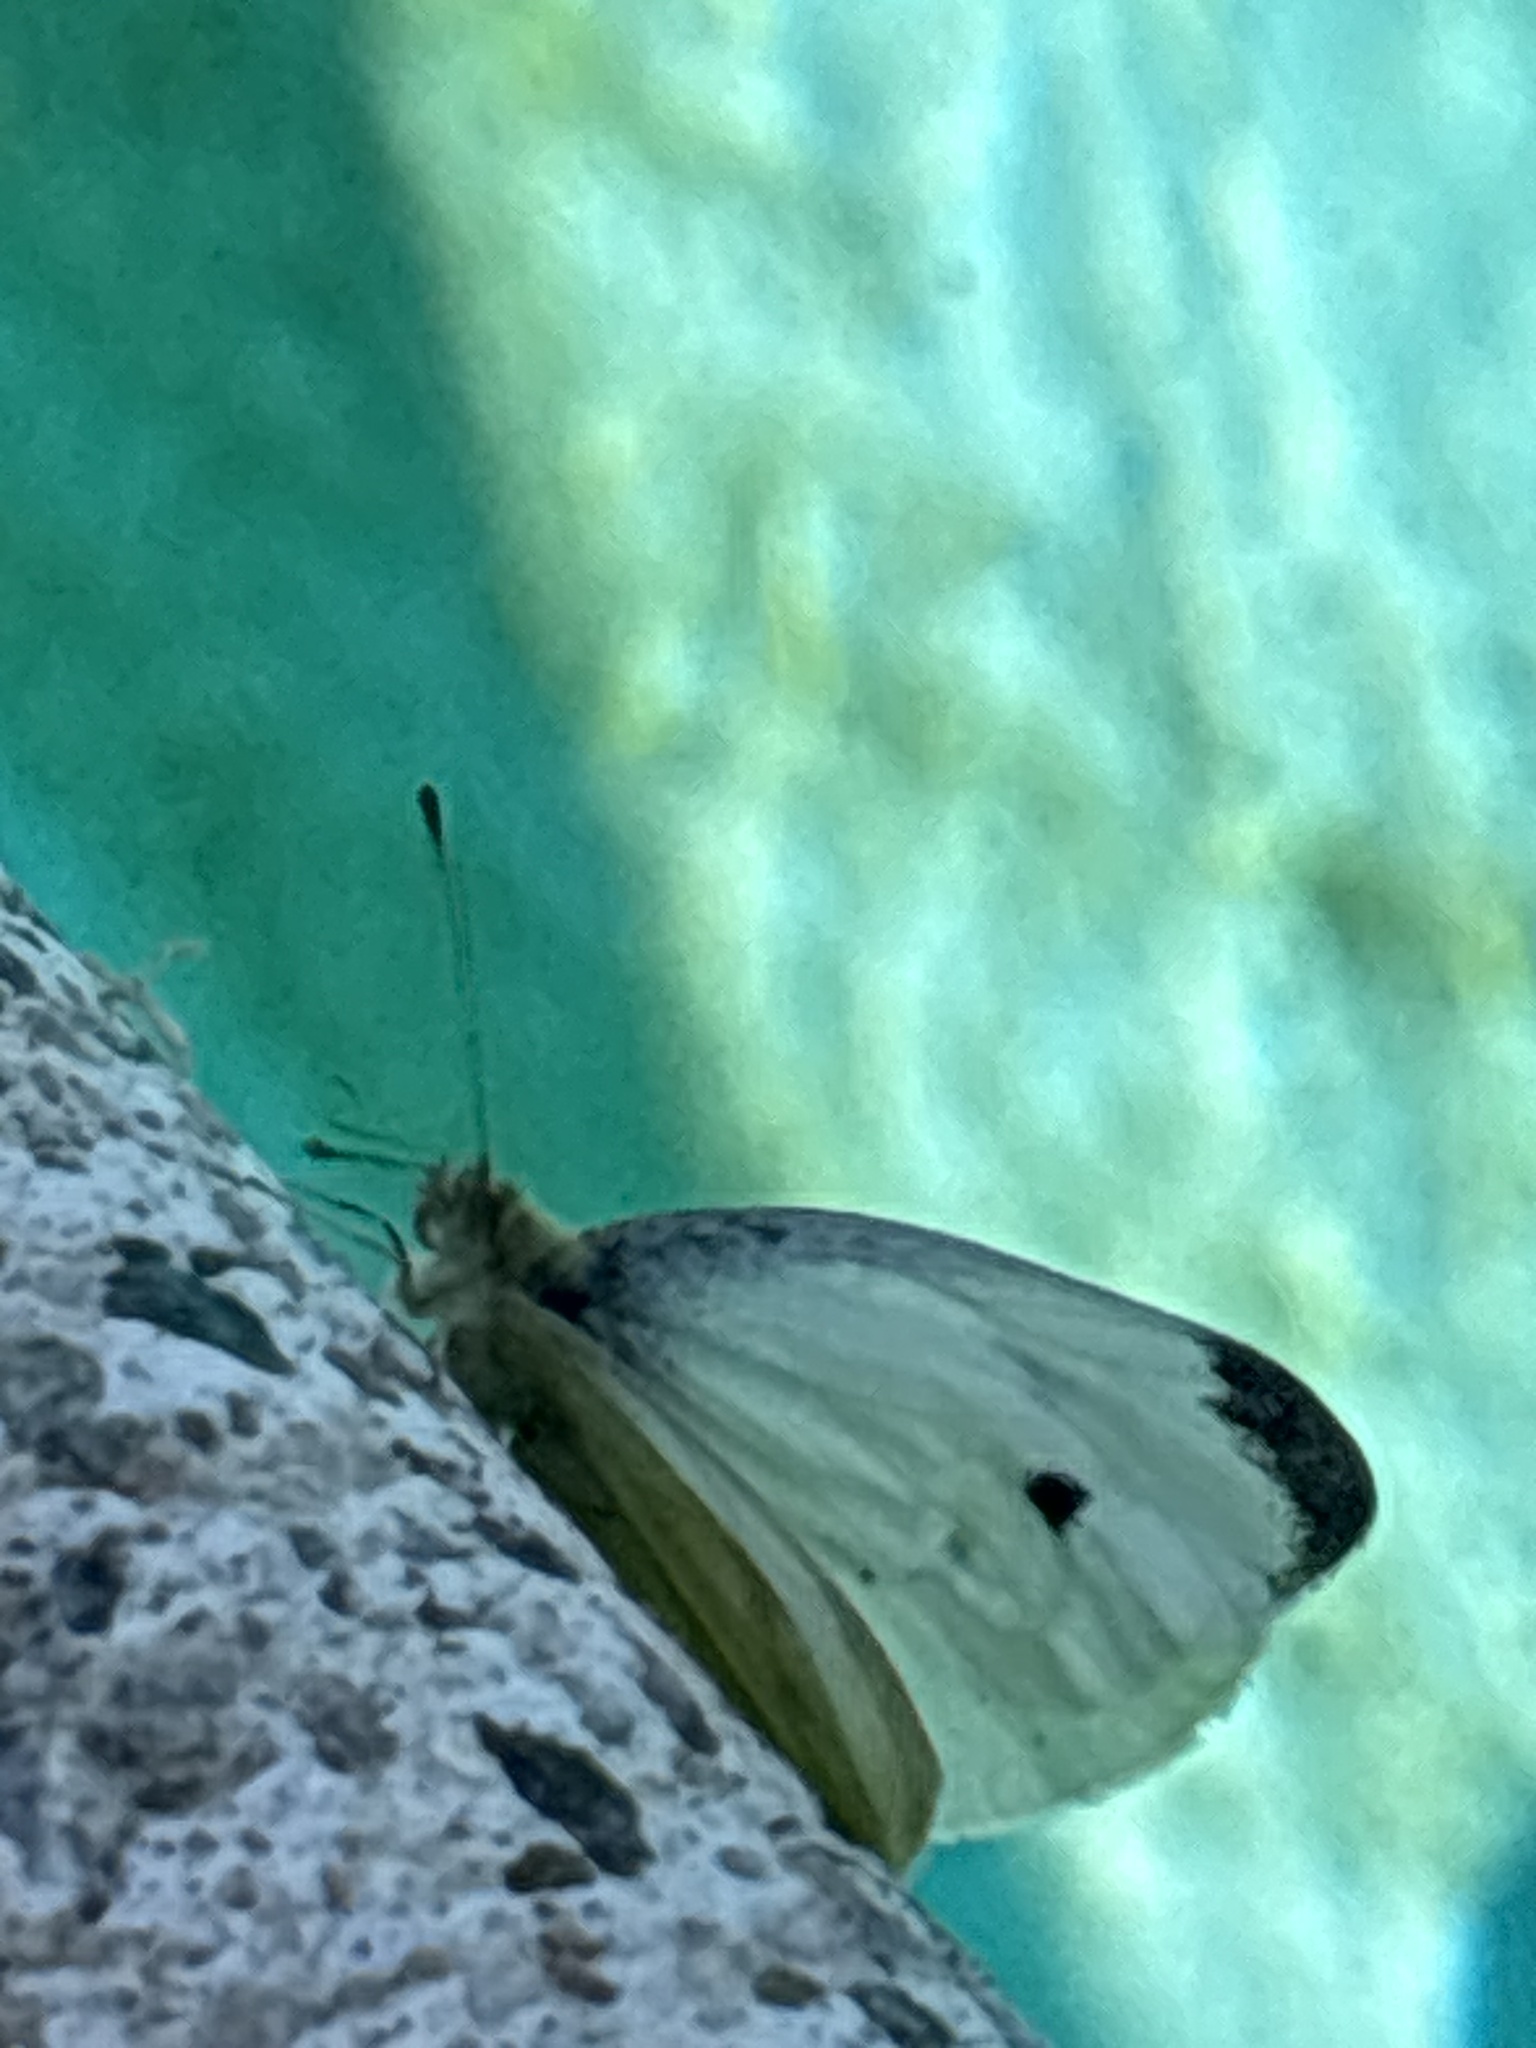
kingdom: Animalia
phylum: Arthropoda
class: Insecta
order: Lepidoptera
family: Pieridae
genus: Pieris
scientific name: Pieris rapae
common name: Small white
